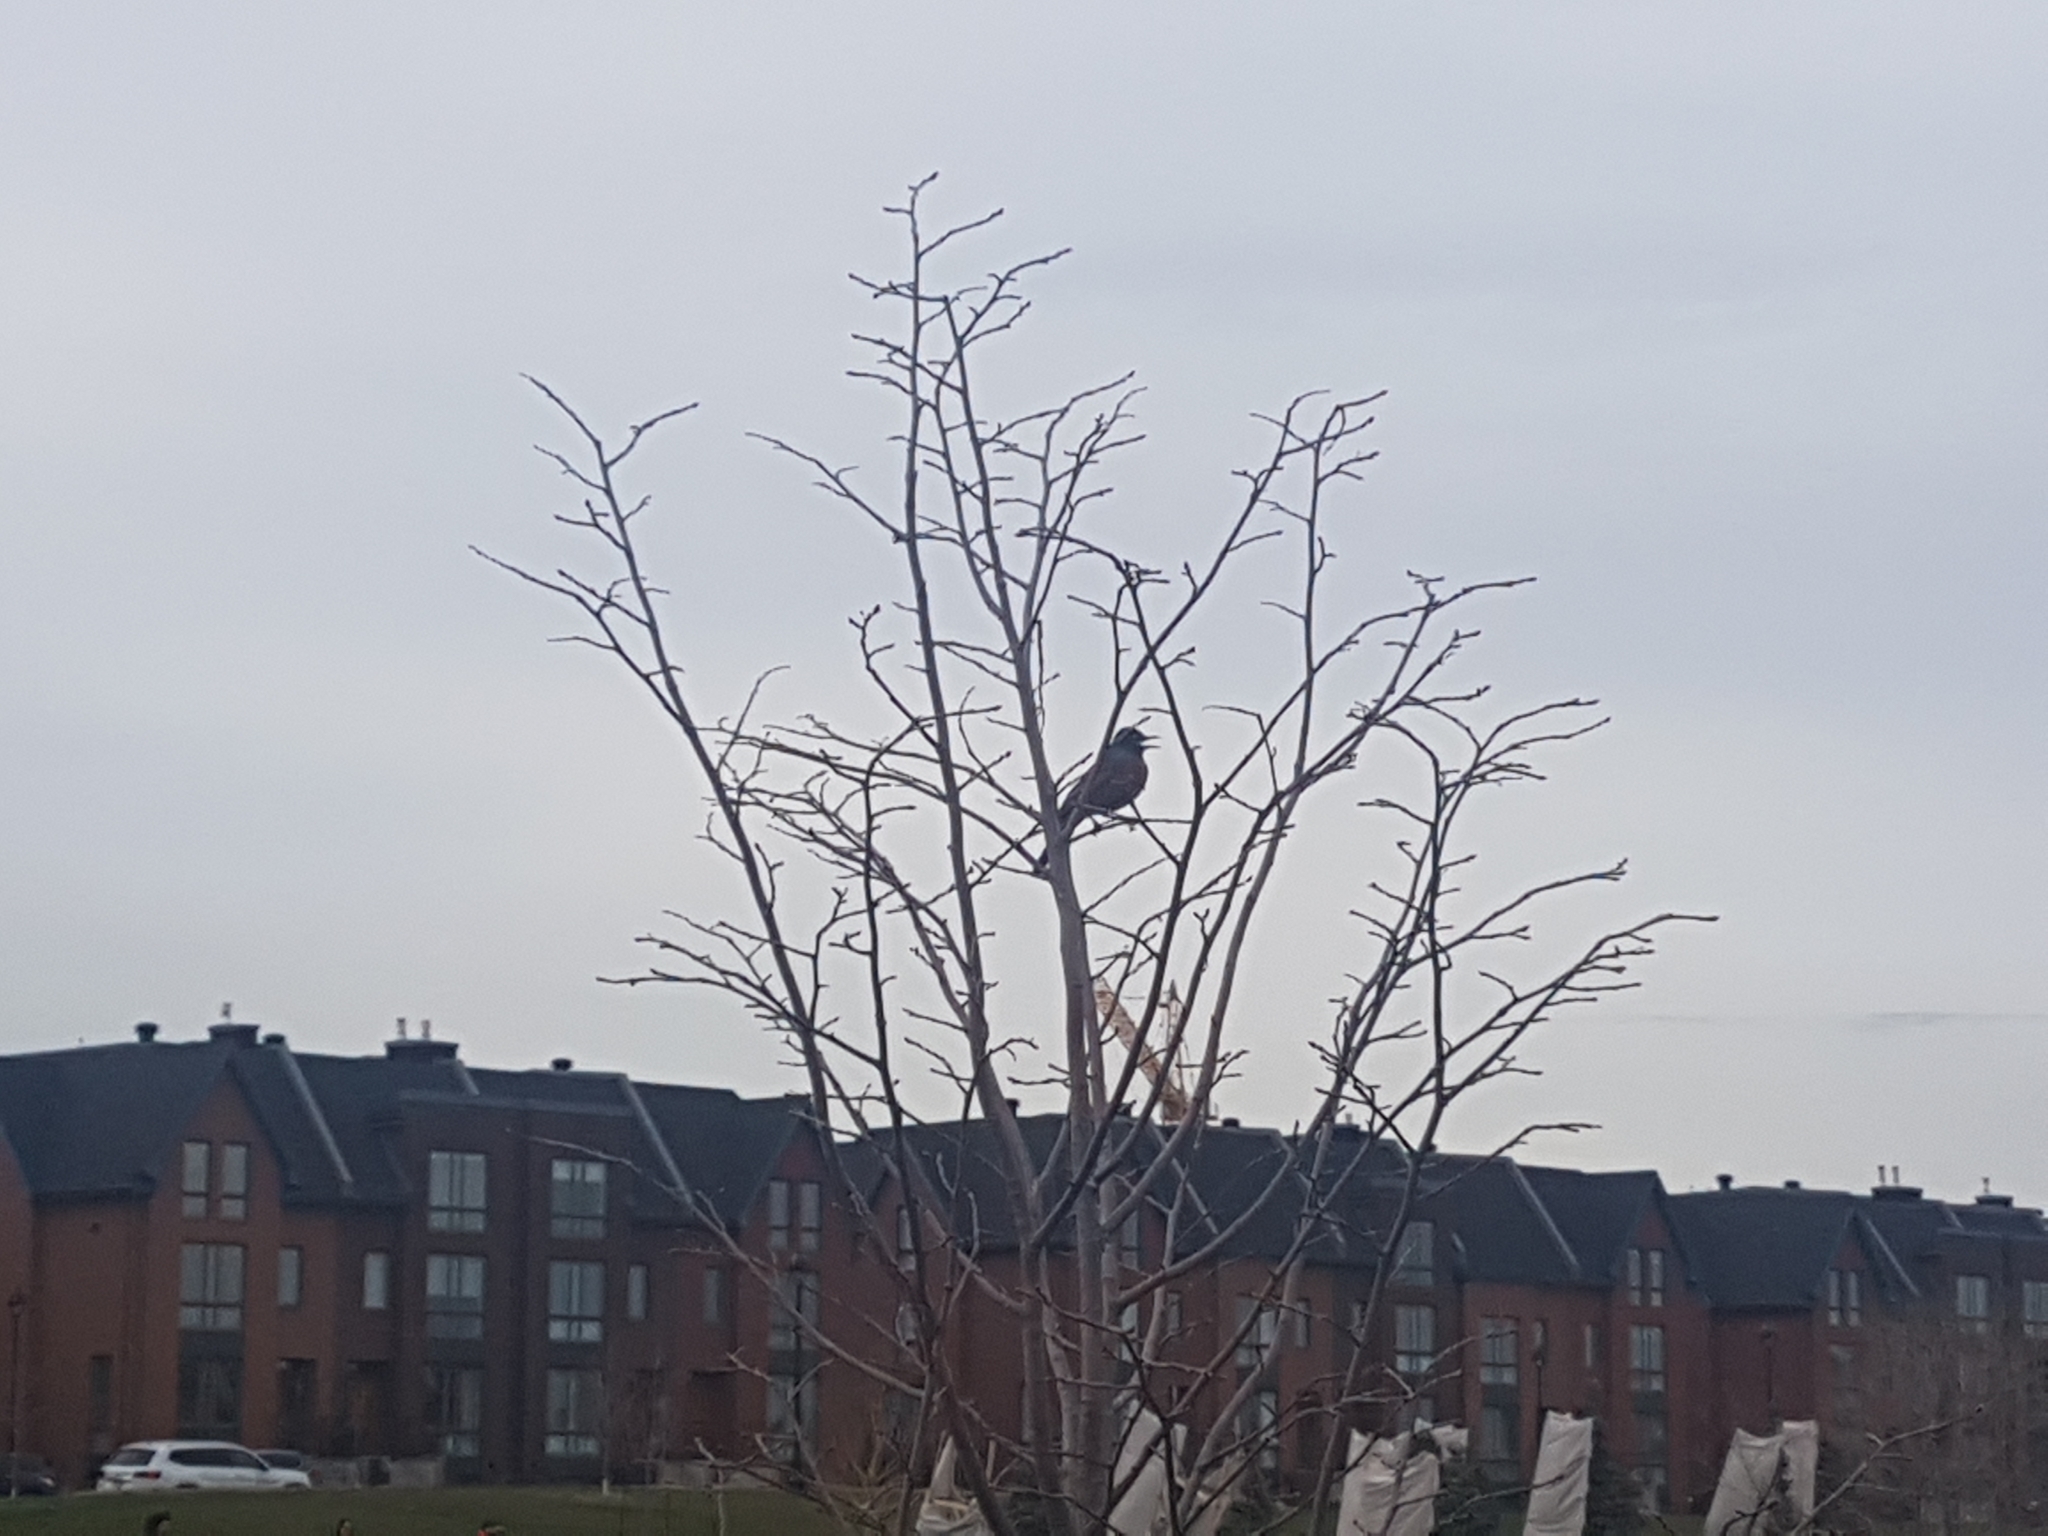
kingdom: Animalia
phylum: Chordata
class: Aves
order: Passeriformes
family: Turdidae
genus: Turdus
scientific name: Turdus migratorius
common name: American robin
